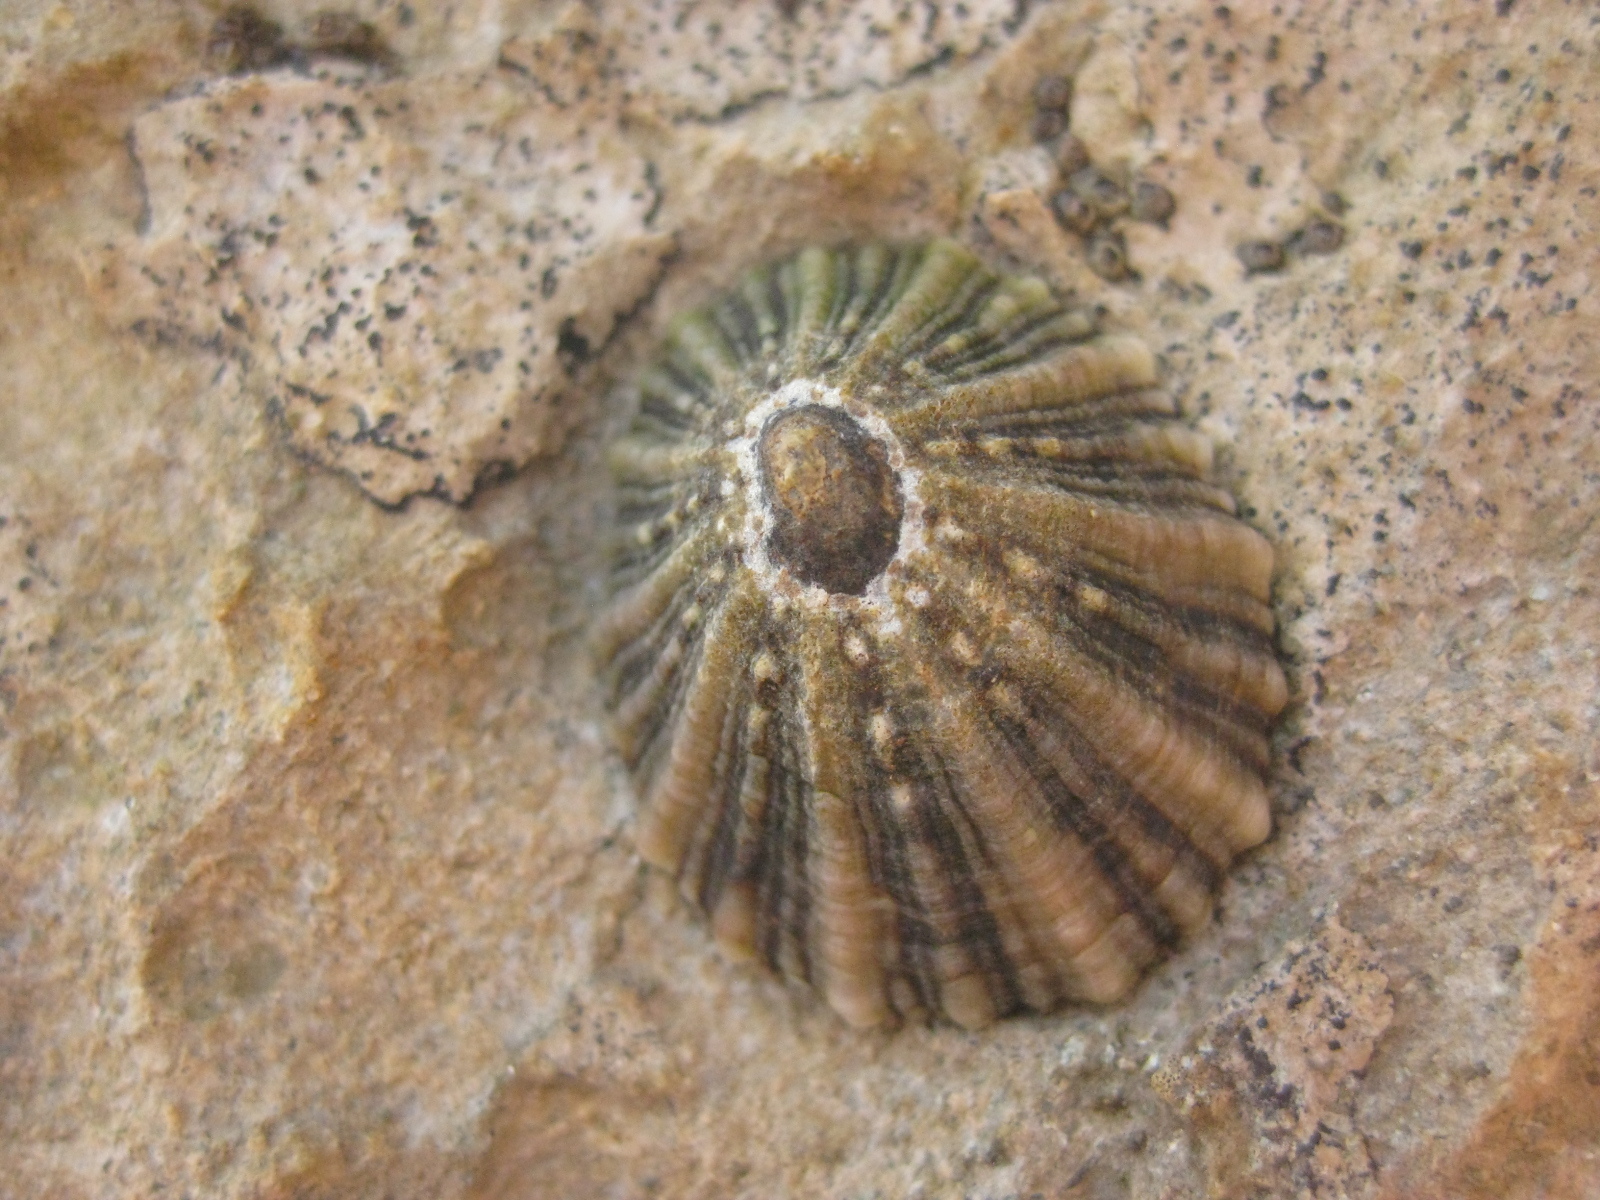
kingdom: Animalia
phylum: Mollusca
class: Gastropoda
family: Nacellidae
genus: Cellana
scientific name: Cellana ornata
